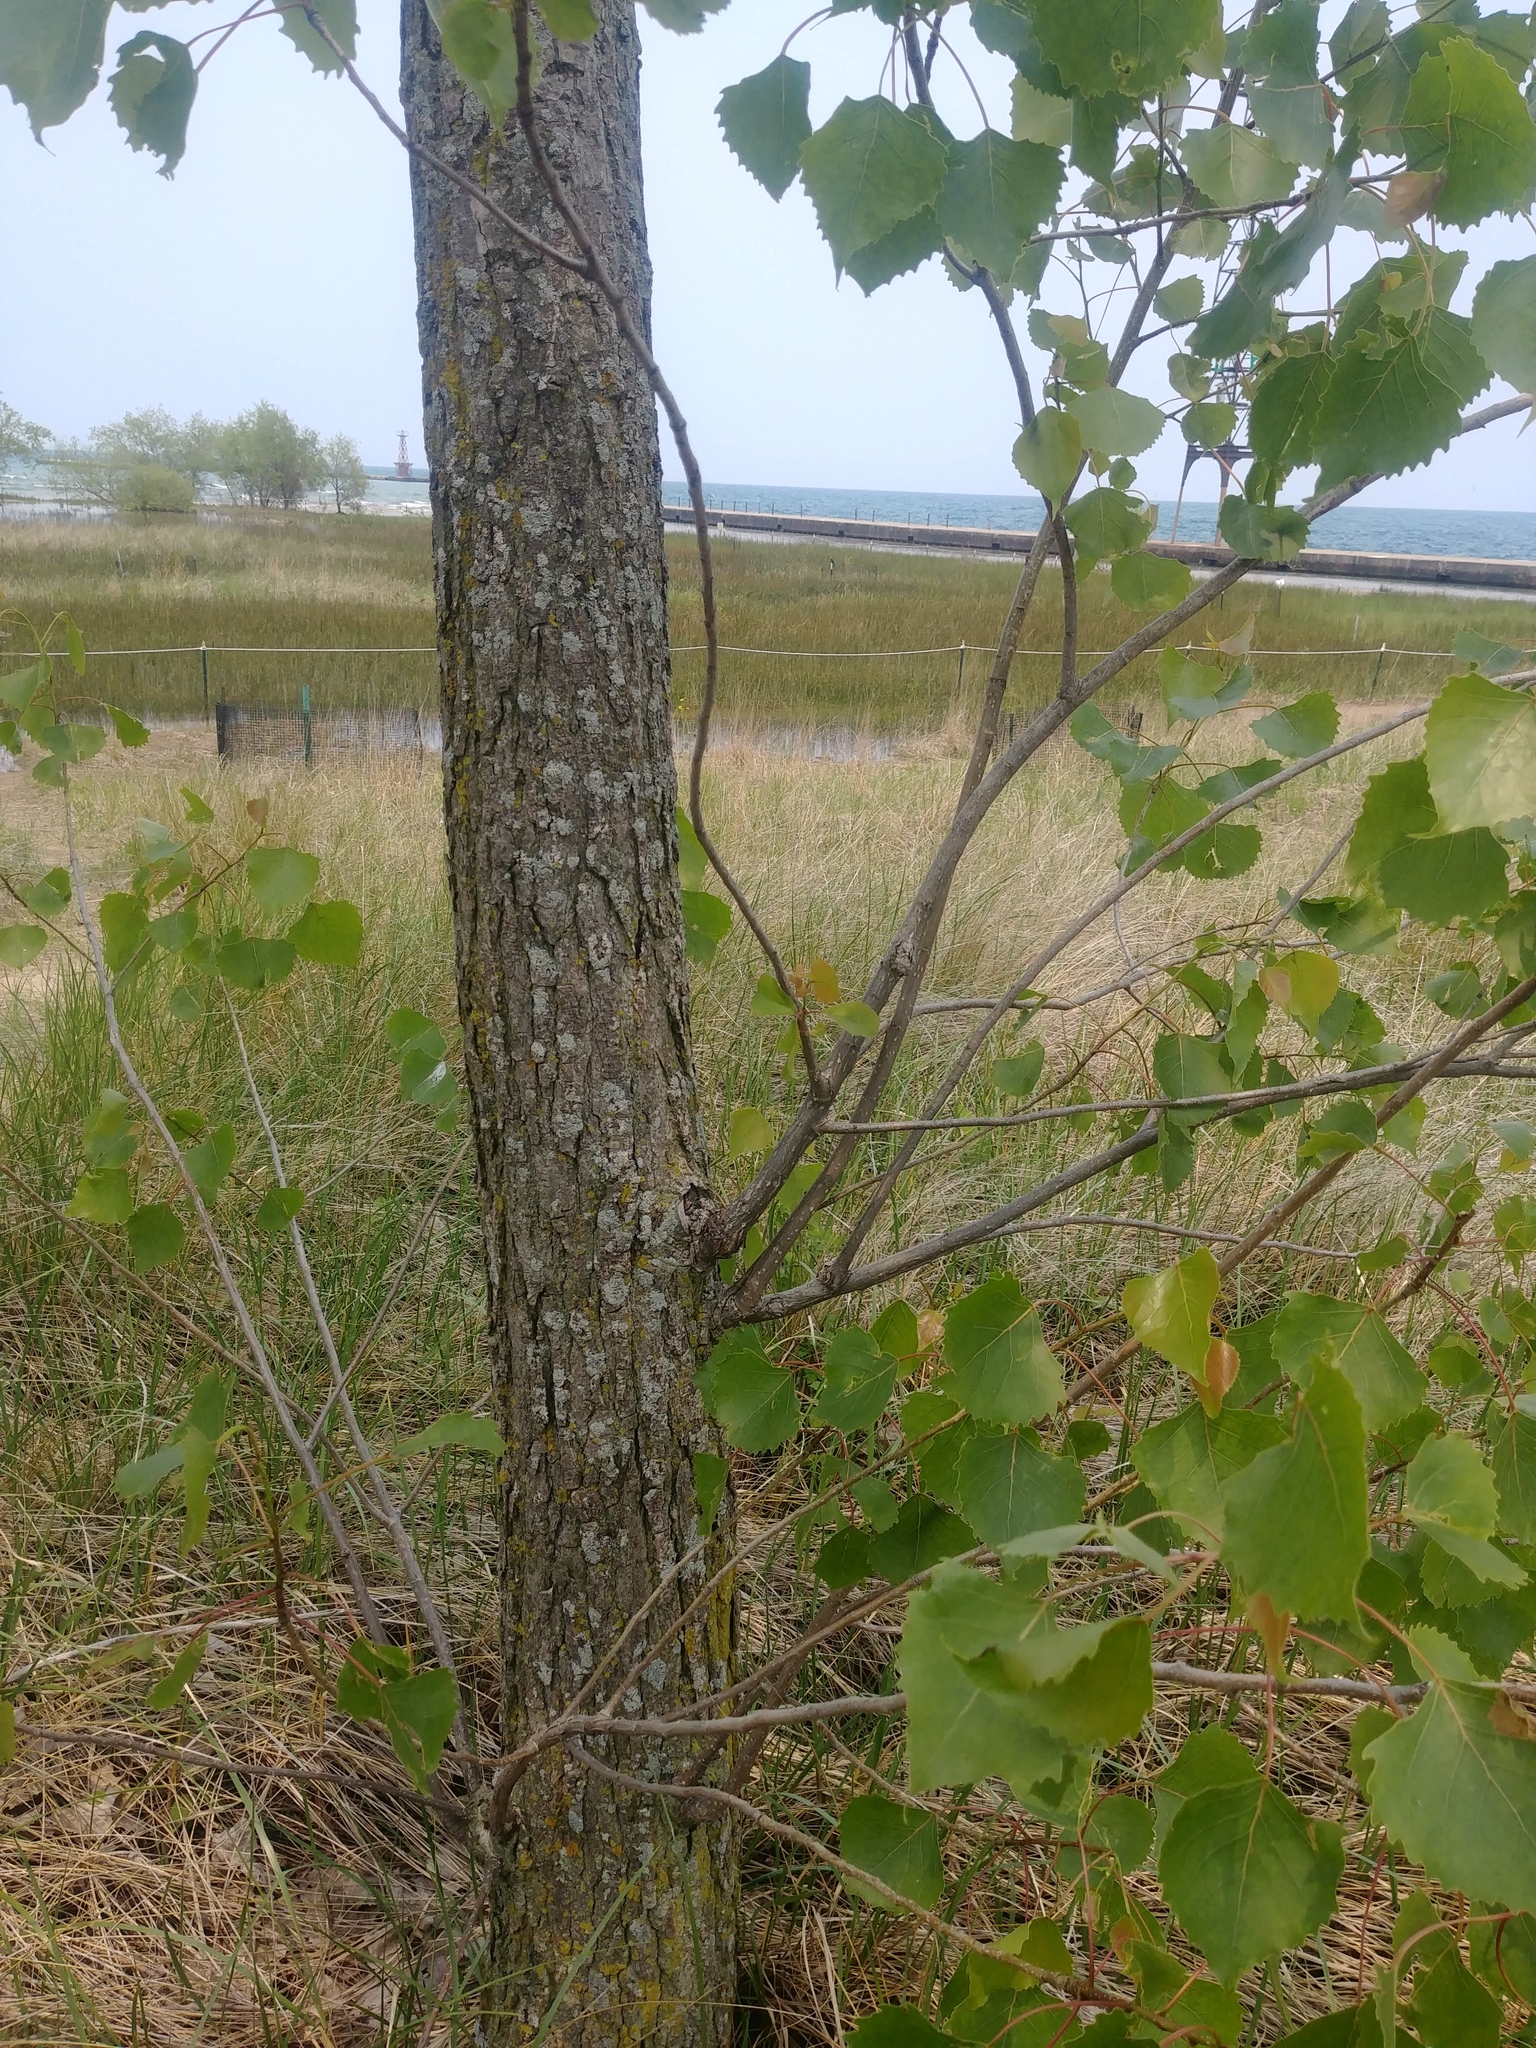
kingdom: Plantae
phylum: Tracheophyta
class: Magnoliopsida
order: Malpighiales
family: Salicaceae
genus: Populus
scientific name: Populus deltoides
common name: Eastern cottonwood
